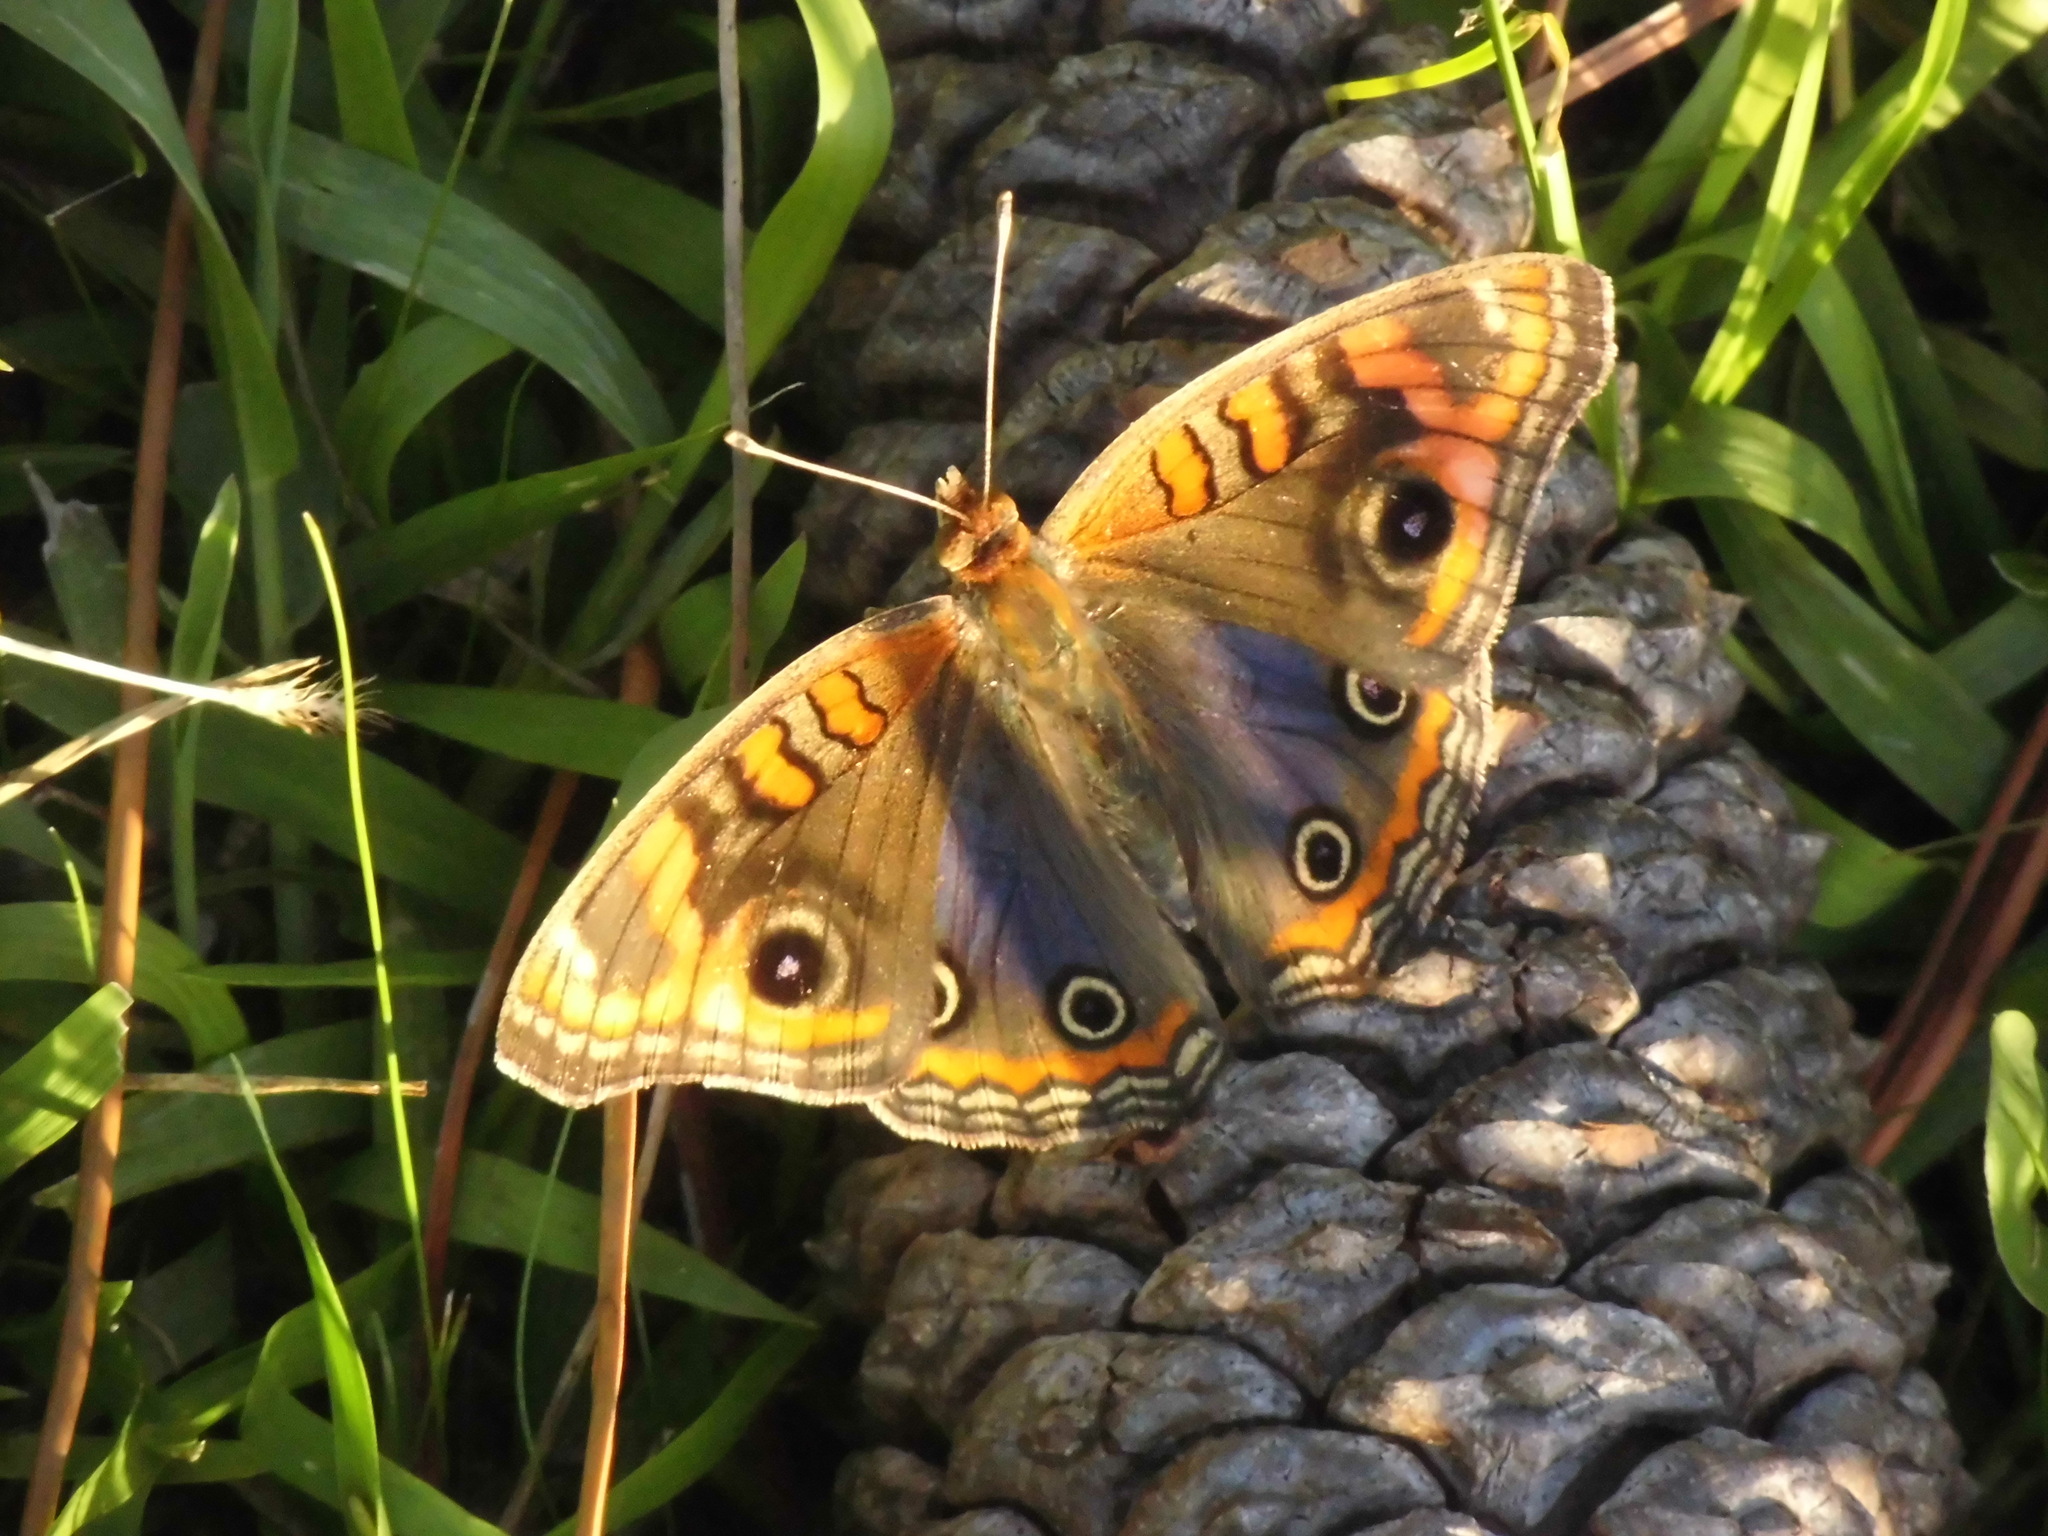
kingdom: Animalia
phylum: Arthropoda
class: Insecta
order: Lepidoptera
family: Nymphalidae
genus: Junonia
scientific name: Junonia lavinia
